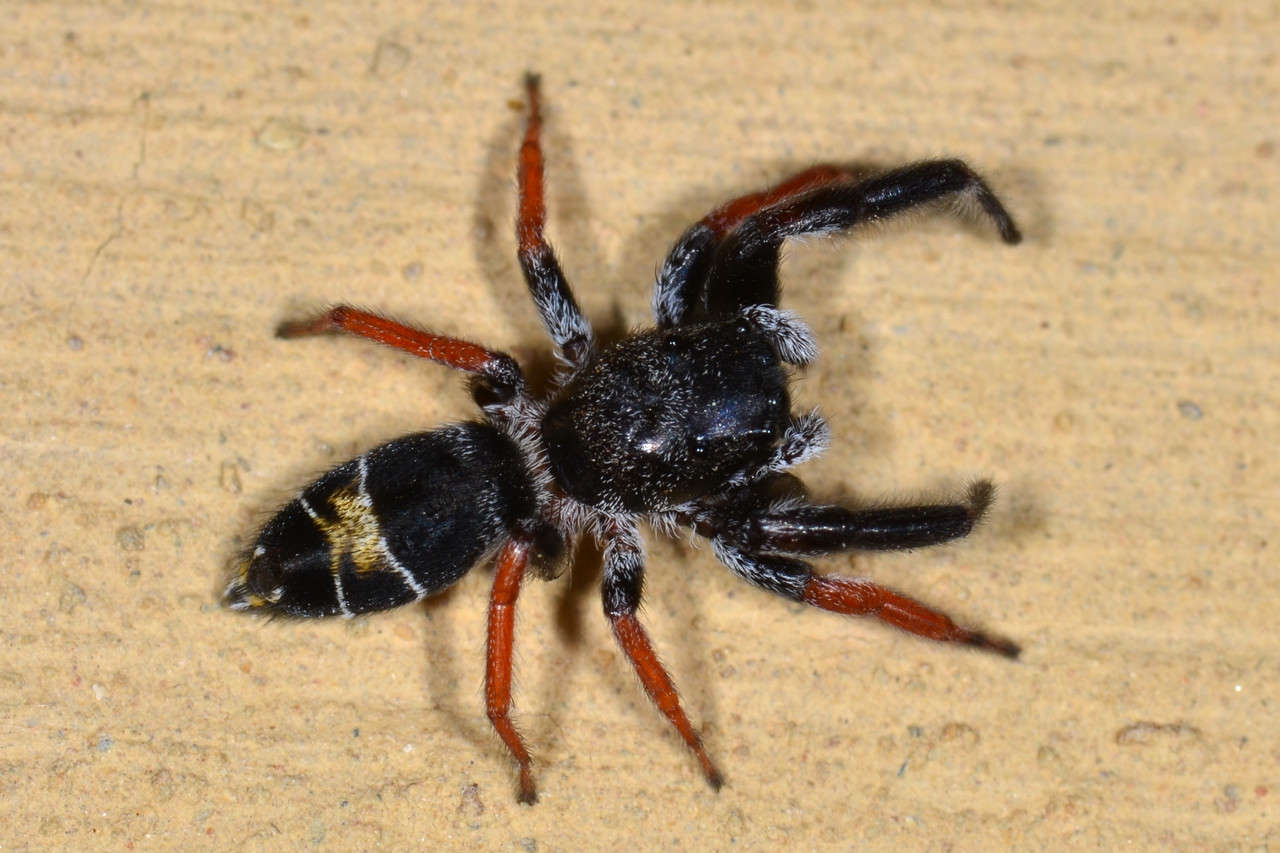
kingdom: Animalia
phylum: Arthropoda
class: Arachnida
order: Araneae
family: Salticidae
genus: Apricia
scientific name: Apricia jovialis
